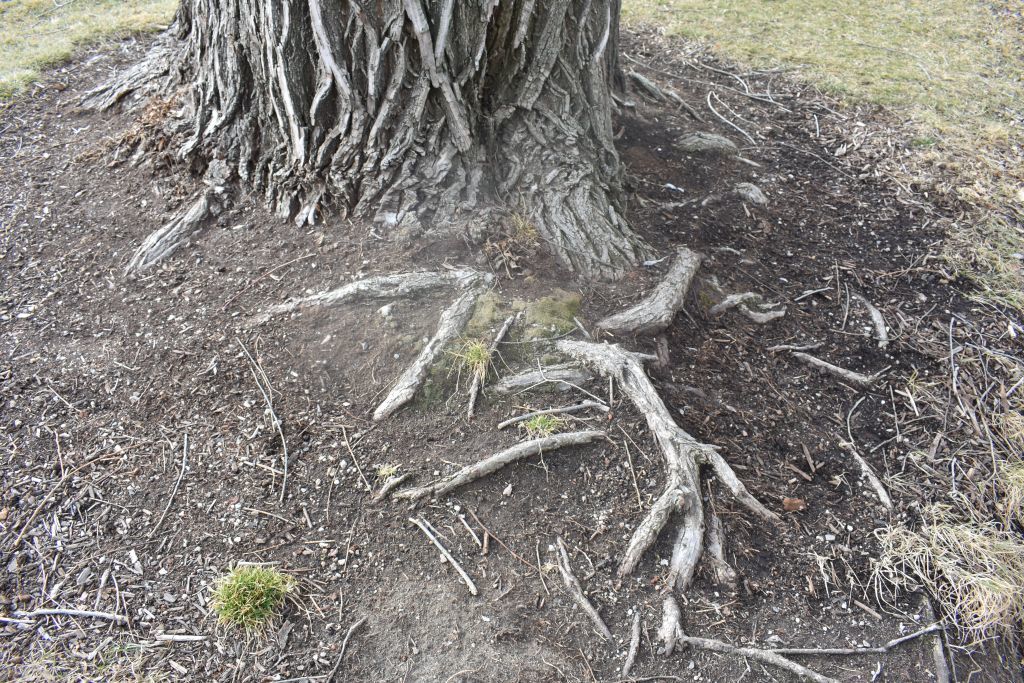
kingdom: Plantae
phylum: Bryophyta
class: Bryopsida
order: Bryales
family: Bryaceae
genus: Bryum
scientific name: Bryum argenteum
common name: Silver-moss
